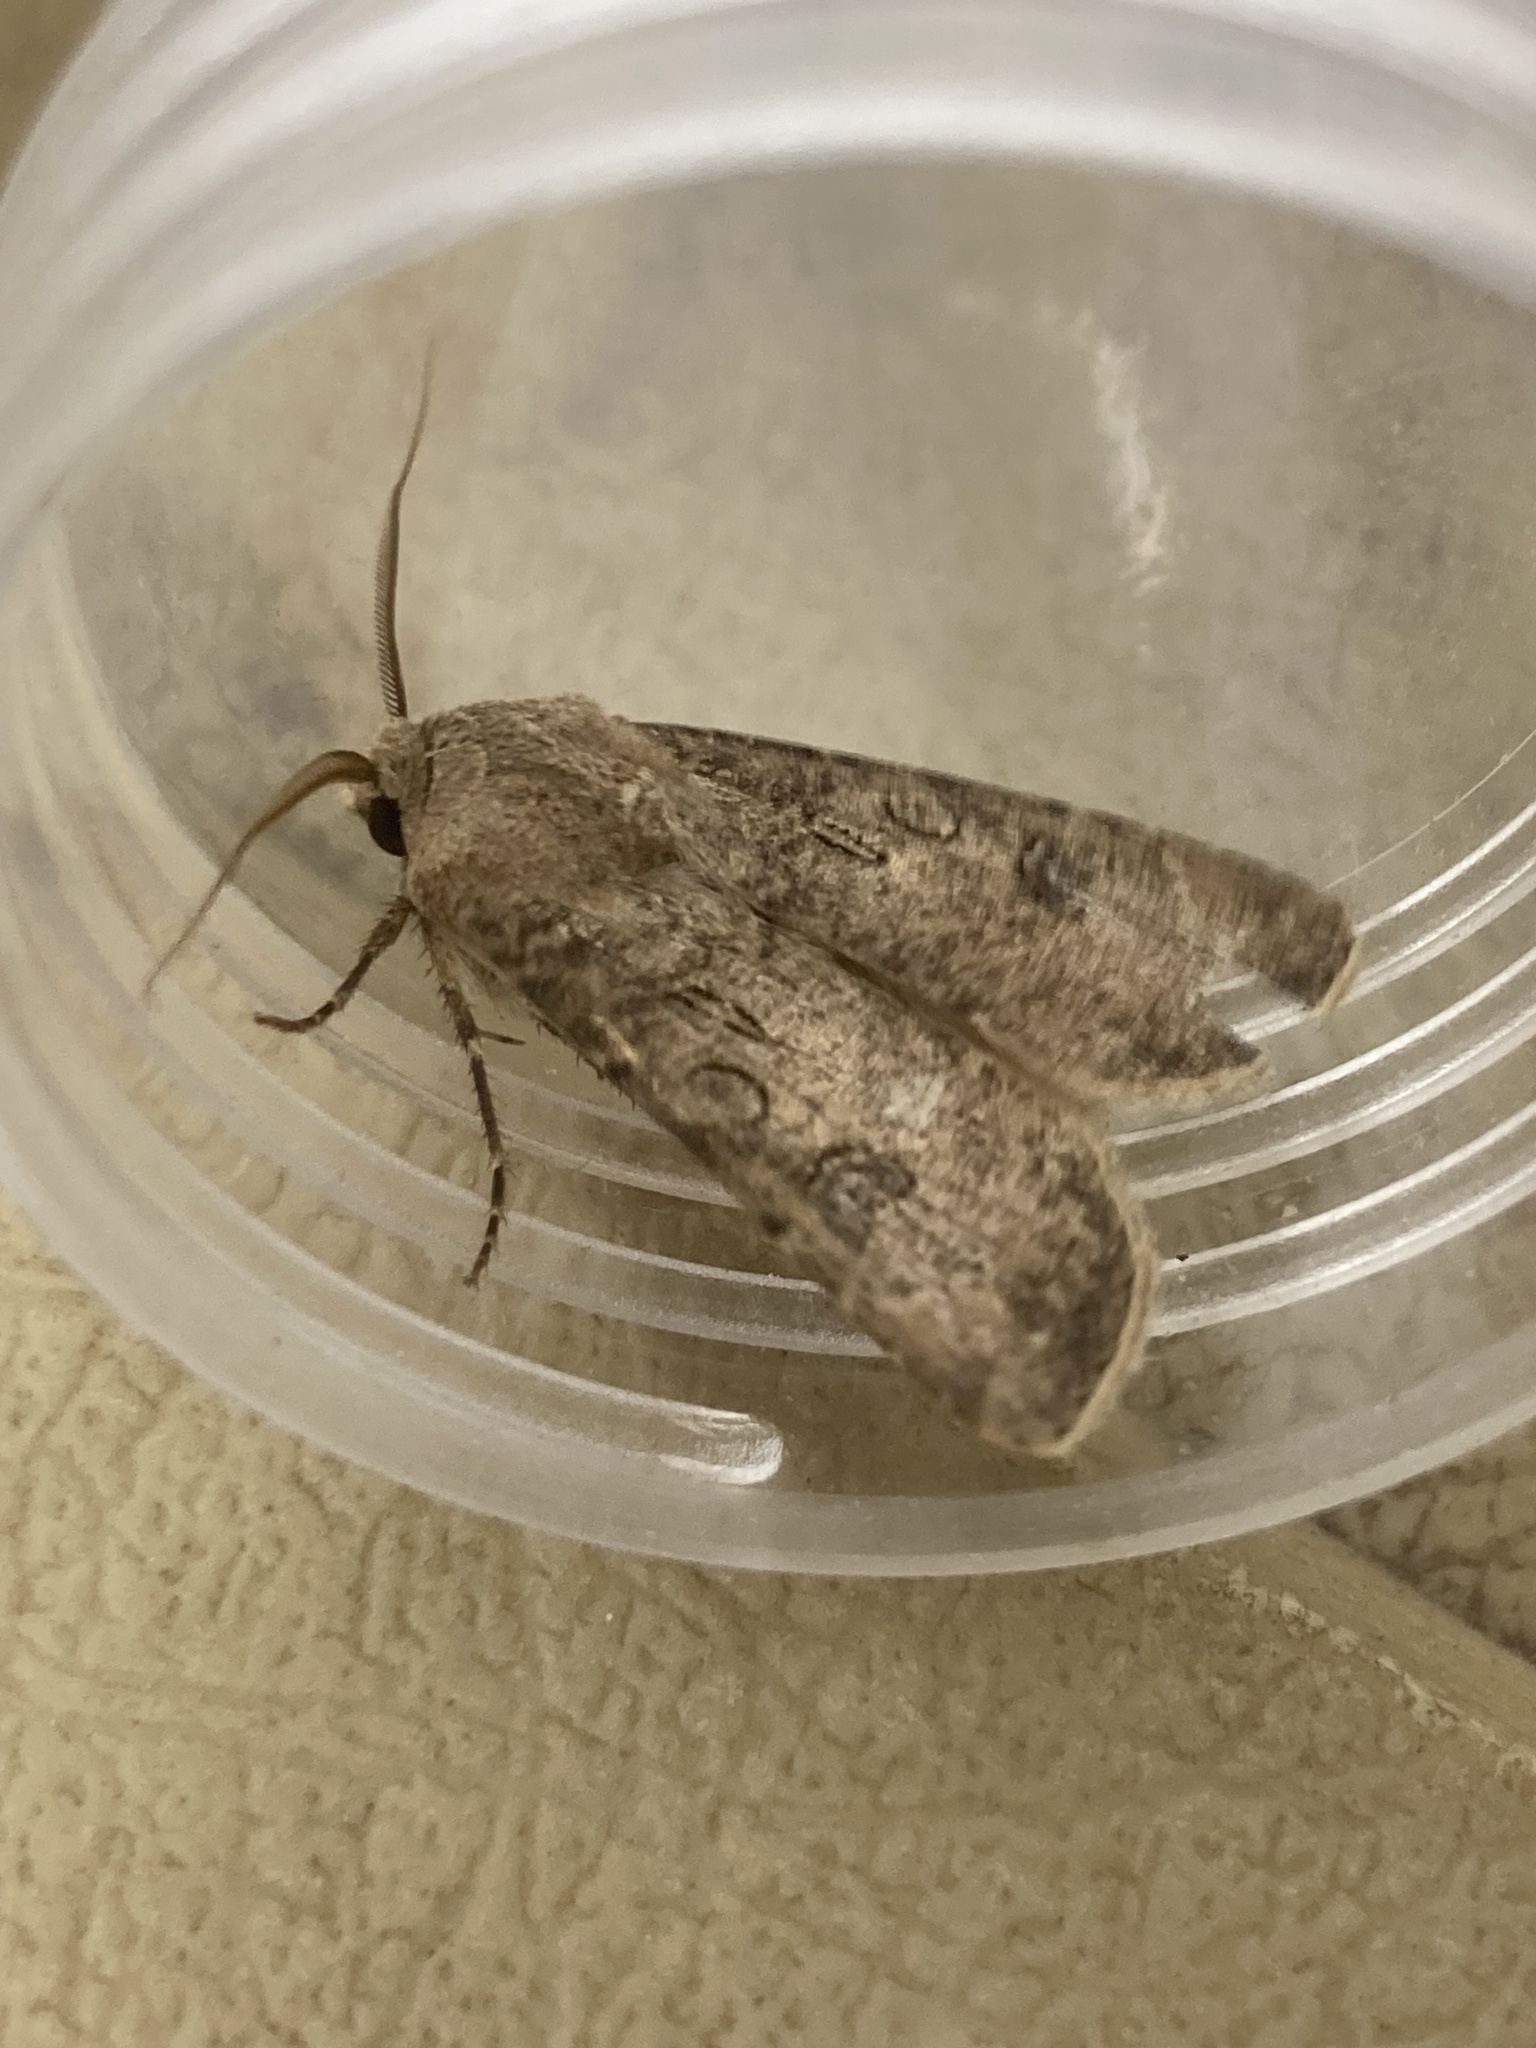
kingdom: Animalia
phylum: Arthropoda
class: Insecta
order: Lepidoptera
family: Noctuidae
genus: Agrotis
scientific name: Agrotis segetum
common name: Turnip moth
